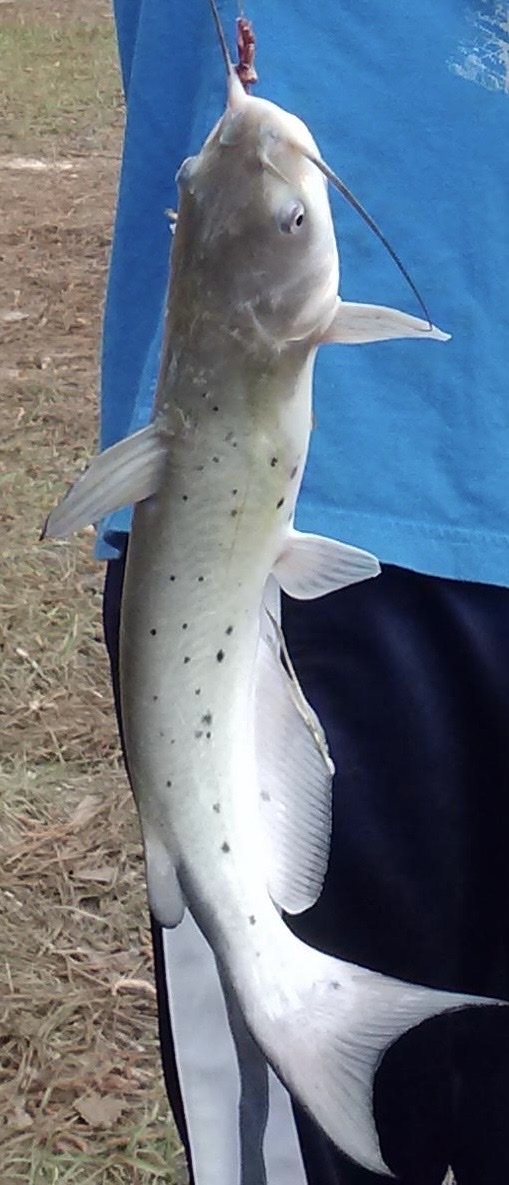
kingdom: Animalia
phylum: Chordata
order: Siluriformes
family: Ictaluridae
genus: Ictalurus
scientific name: Ictalurus punctatus
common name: Channel catfish
